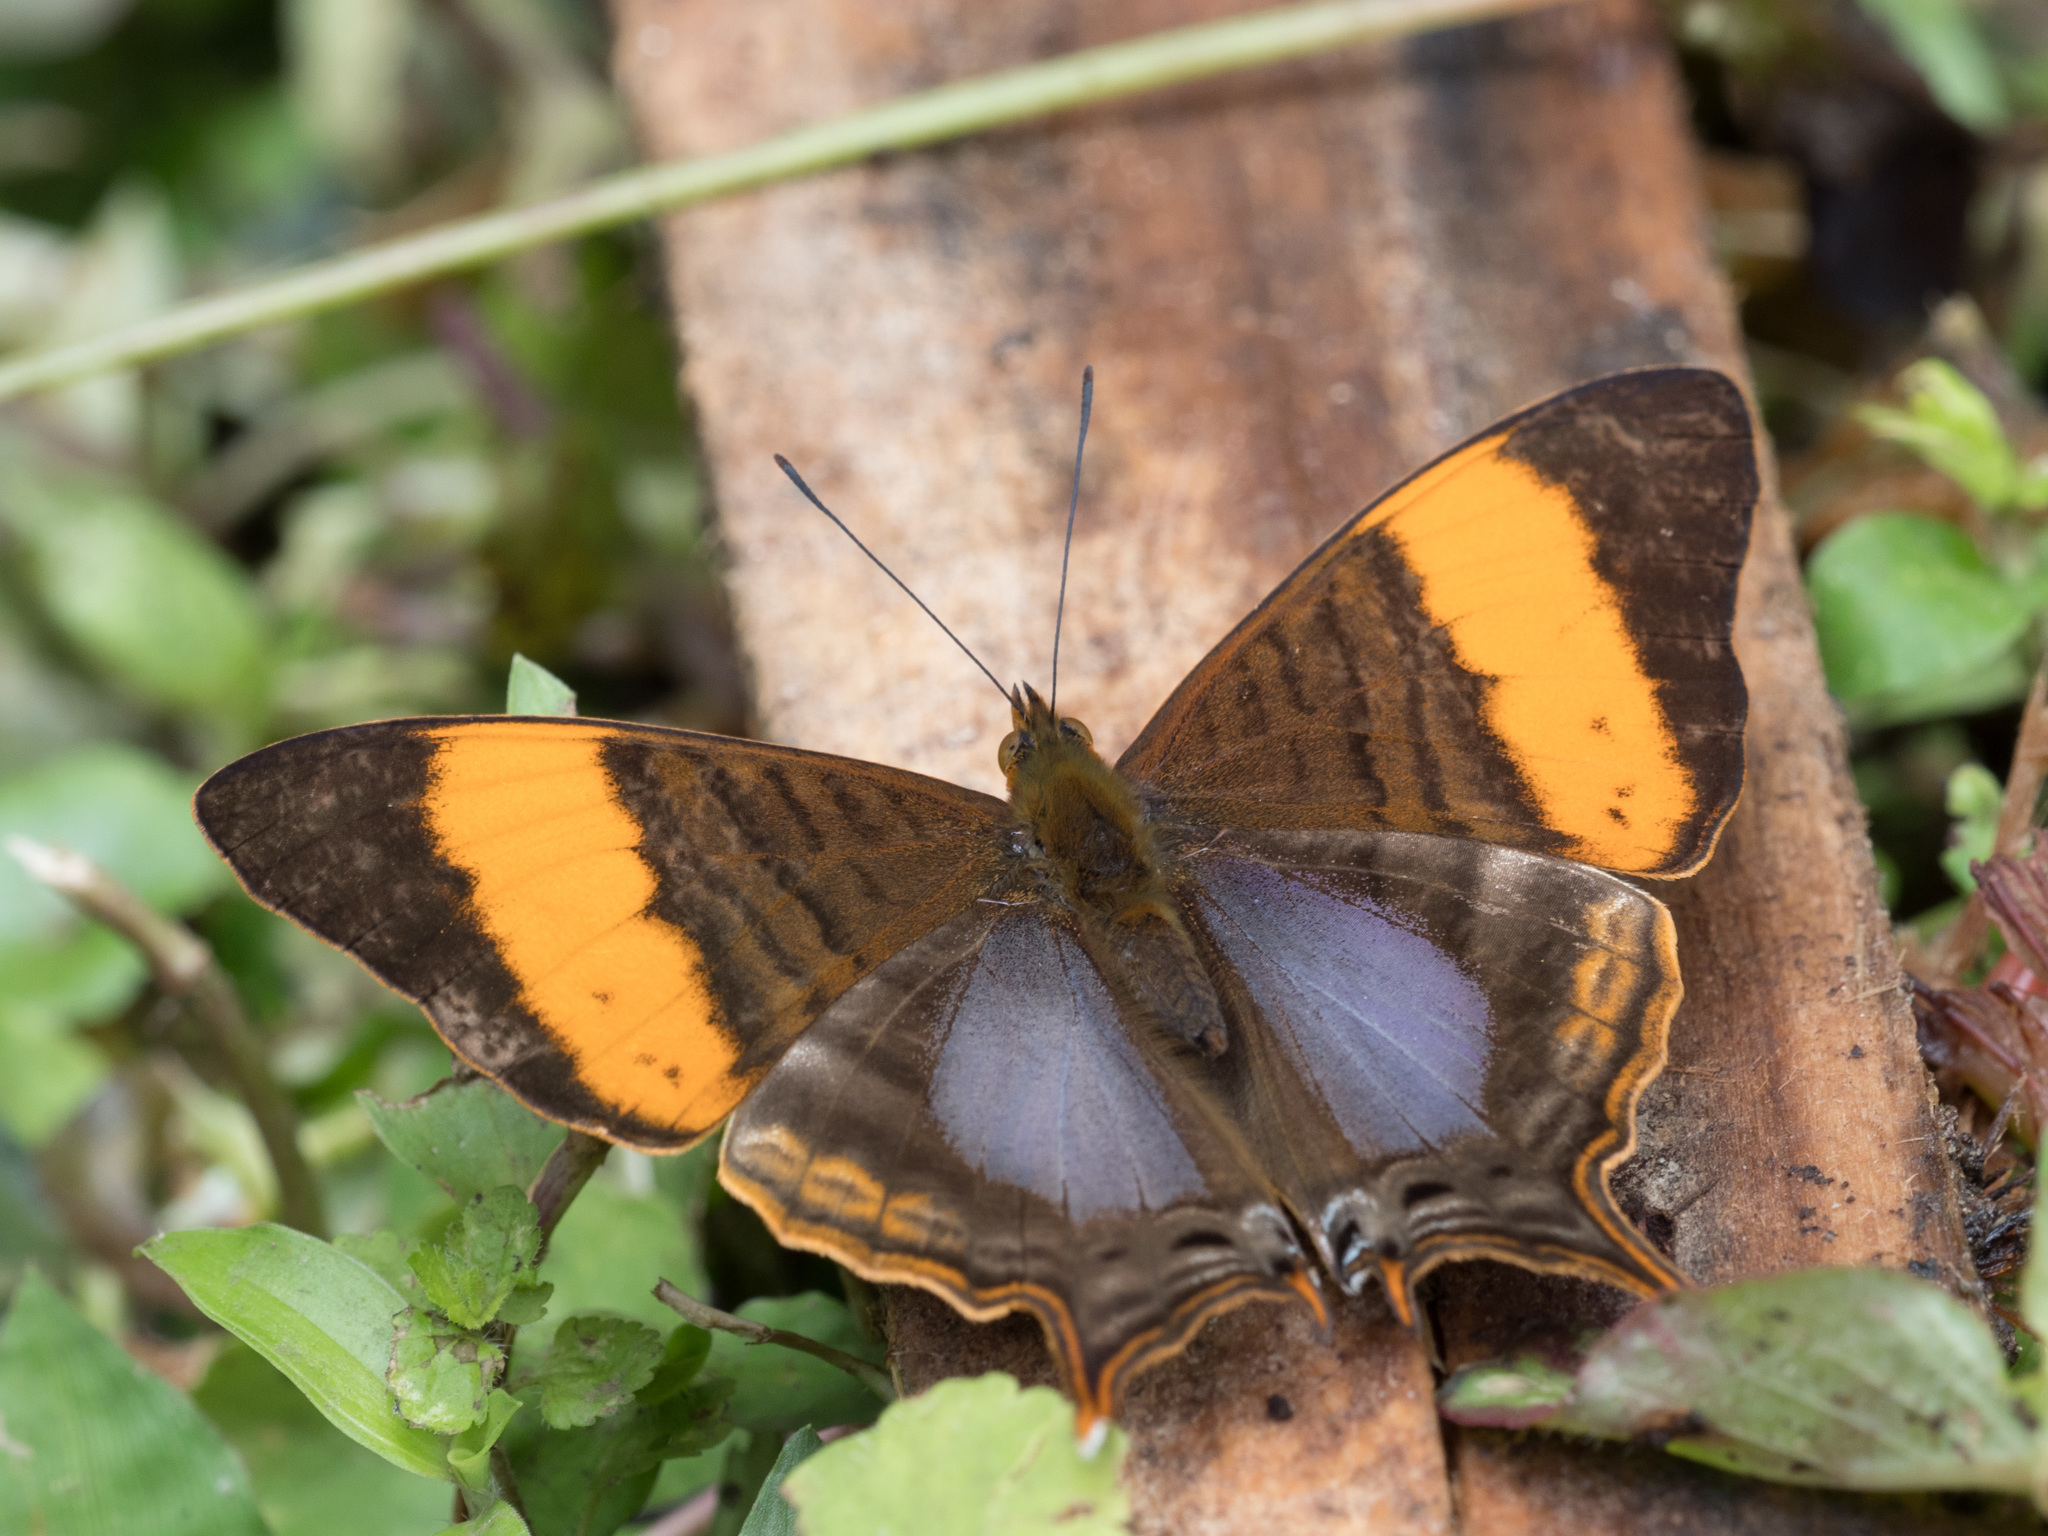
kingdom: Animalia
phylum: Arthropoda
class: Insecta
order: Lepidoptera
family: Nymphalidae
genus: Marpesia
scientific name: Marpesia corinna
